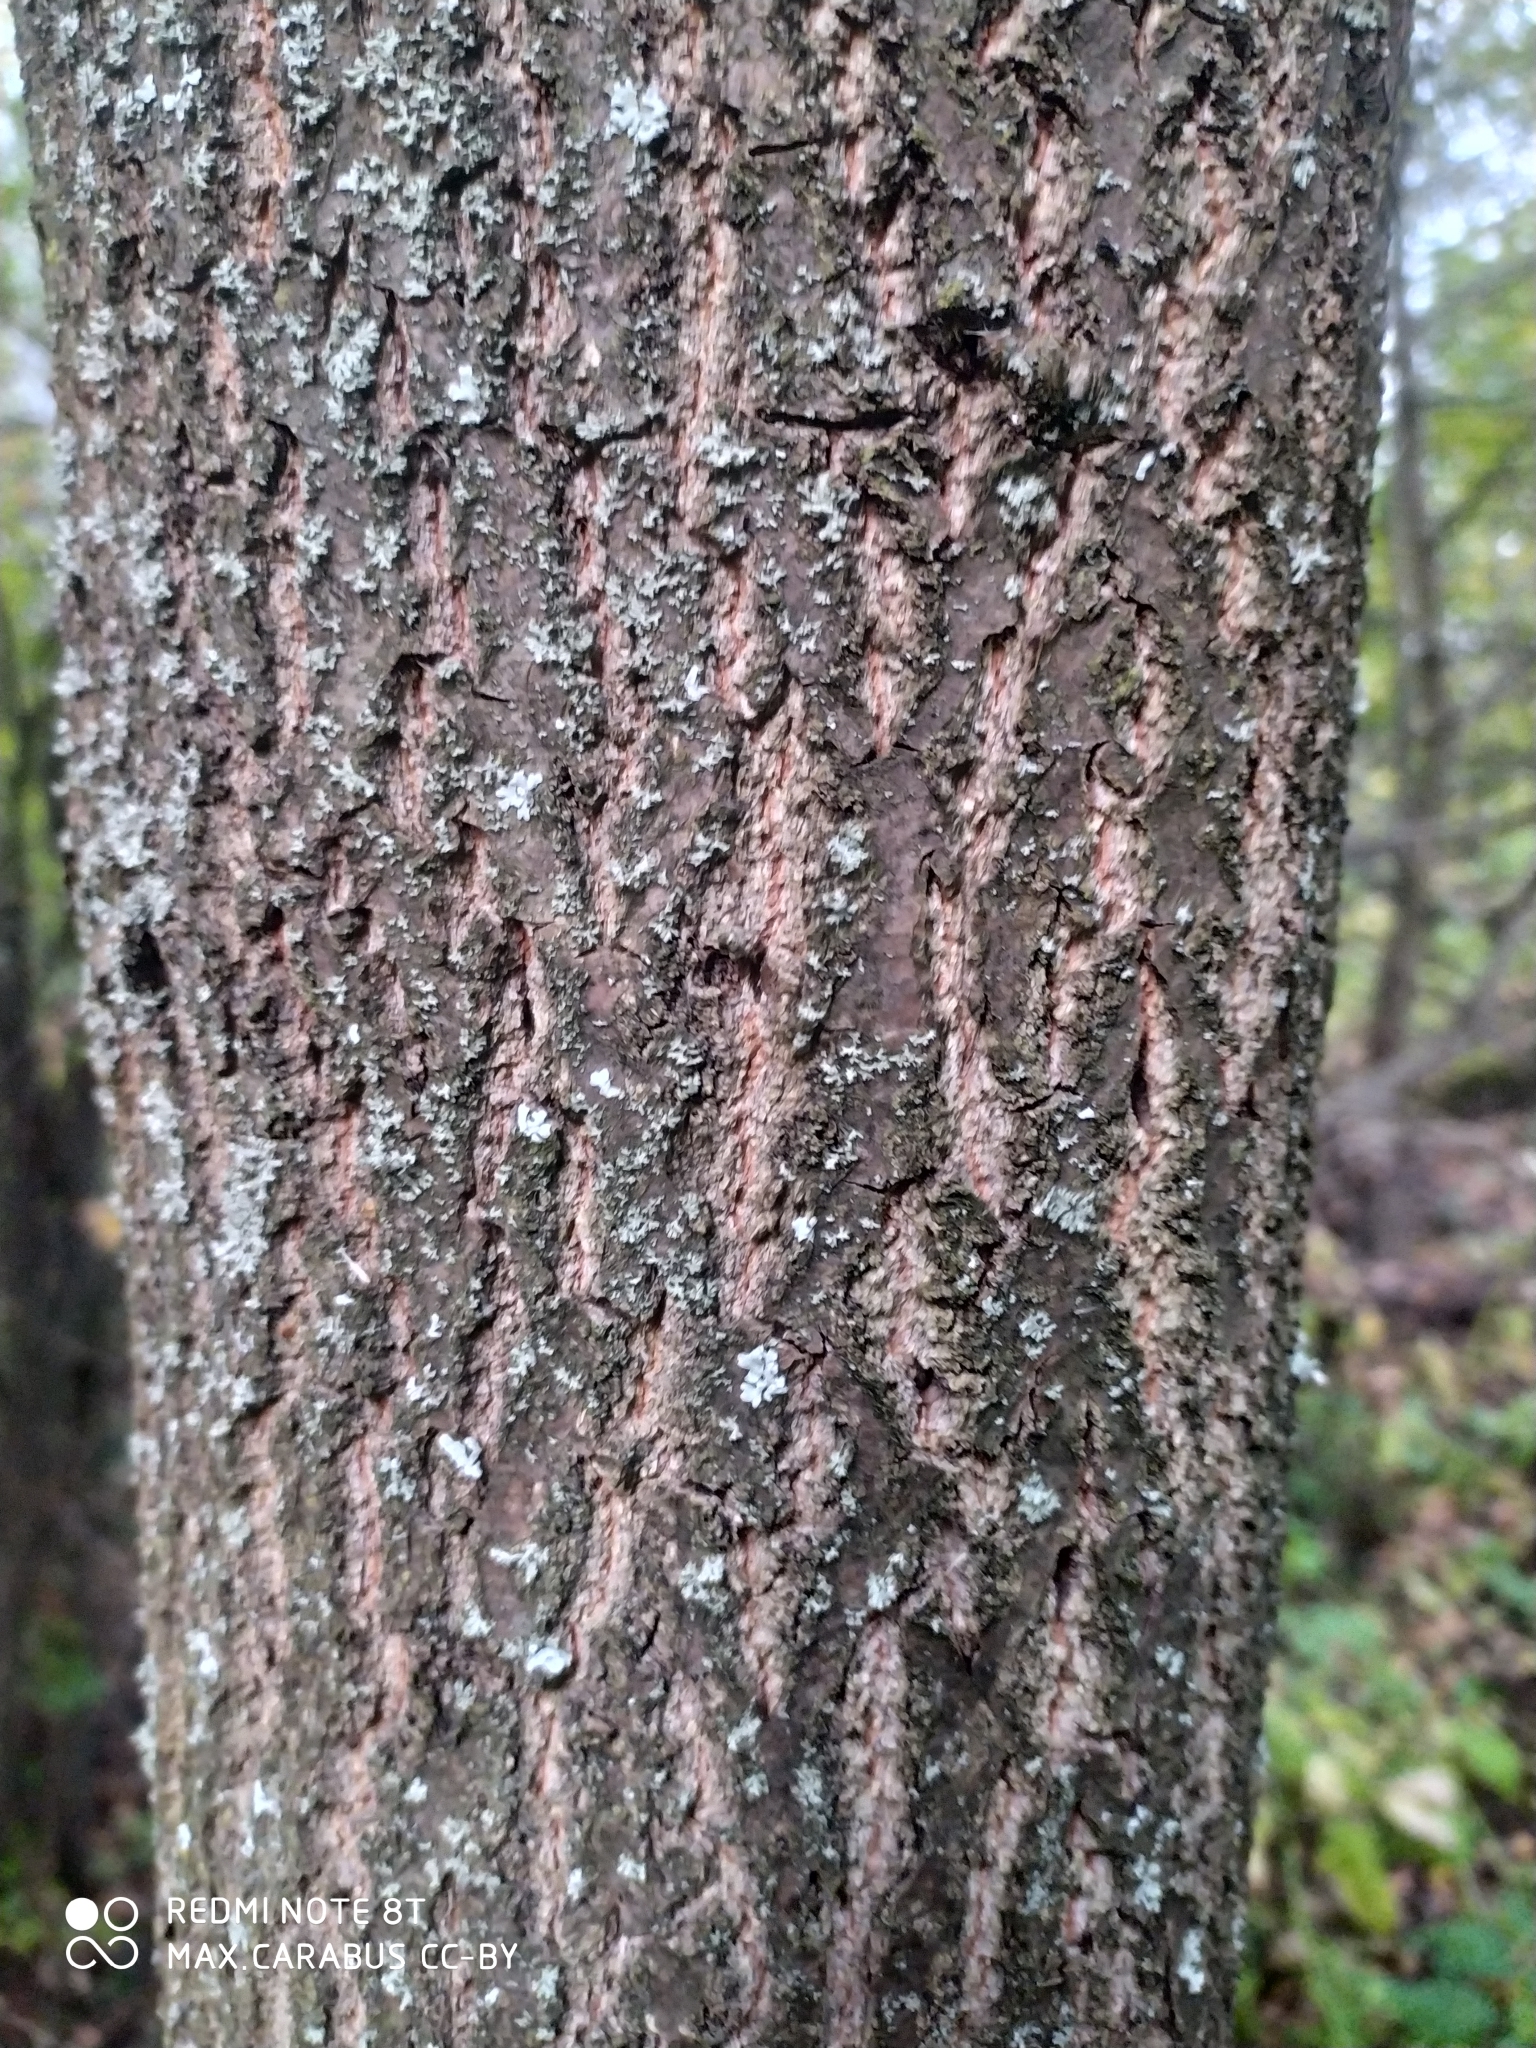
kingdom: Plantae
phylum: Tracheophyta
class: Magnoliopsida
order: Fagales
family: Fagaceae
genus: Quercus
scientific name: Quercus robur
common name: Pedunculate oak
